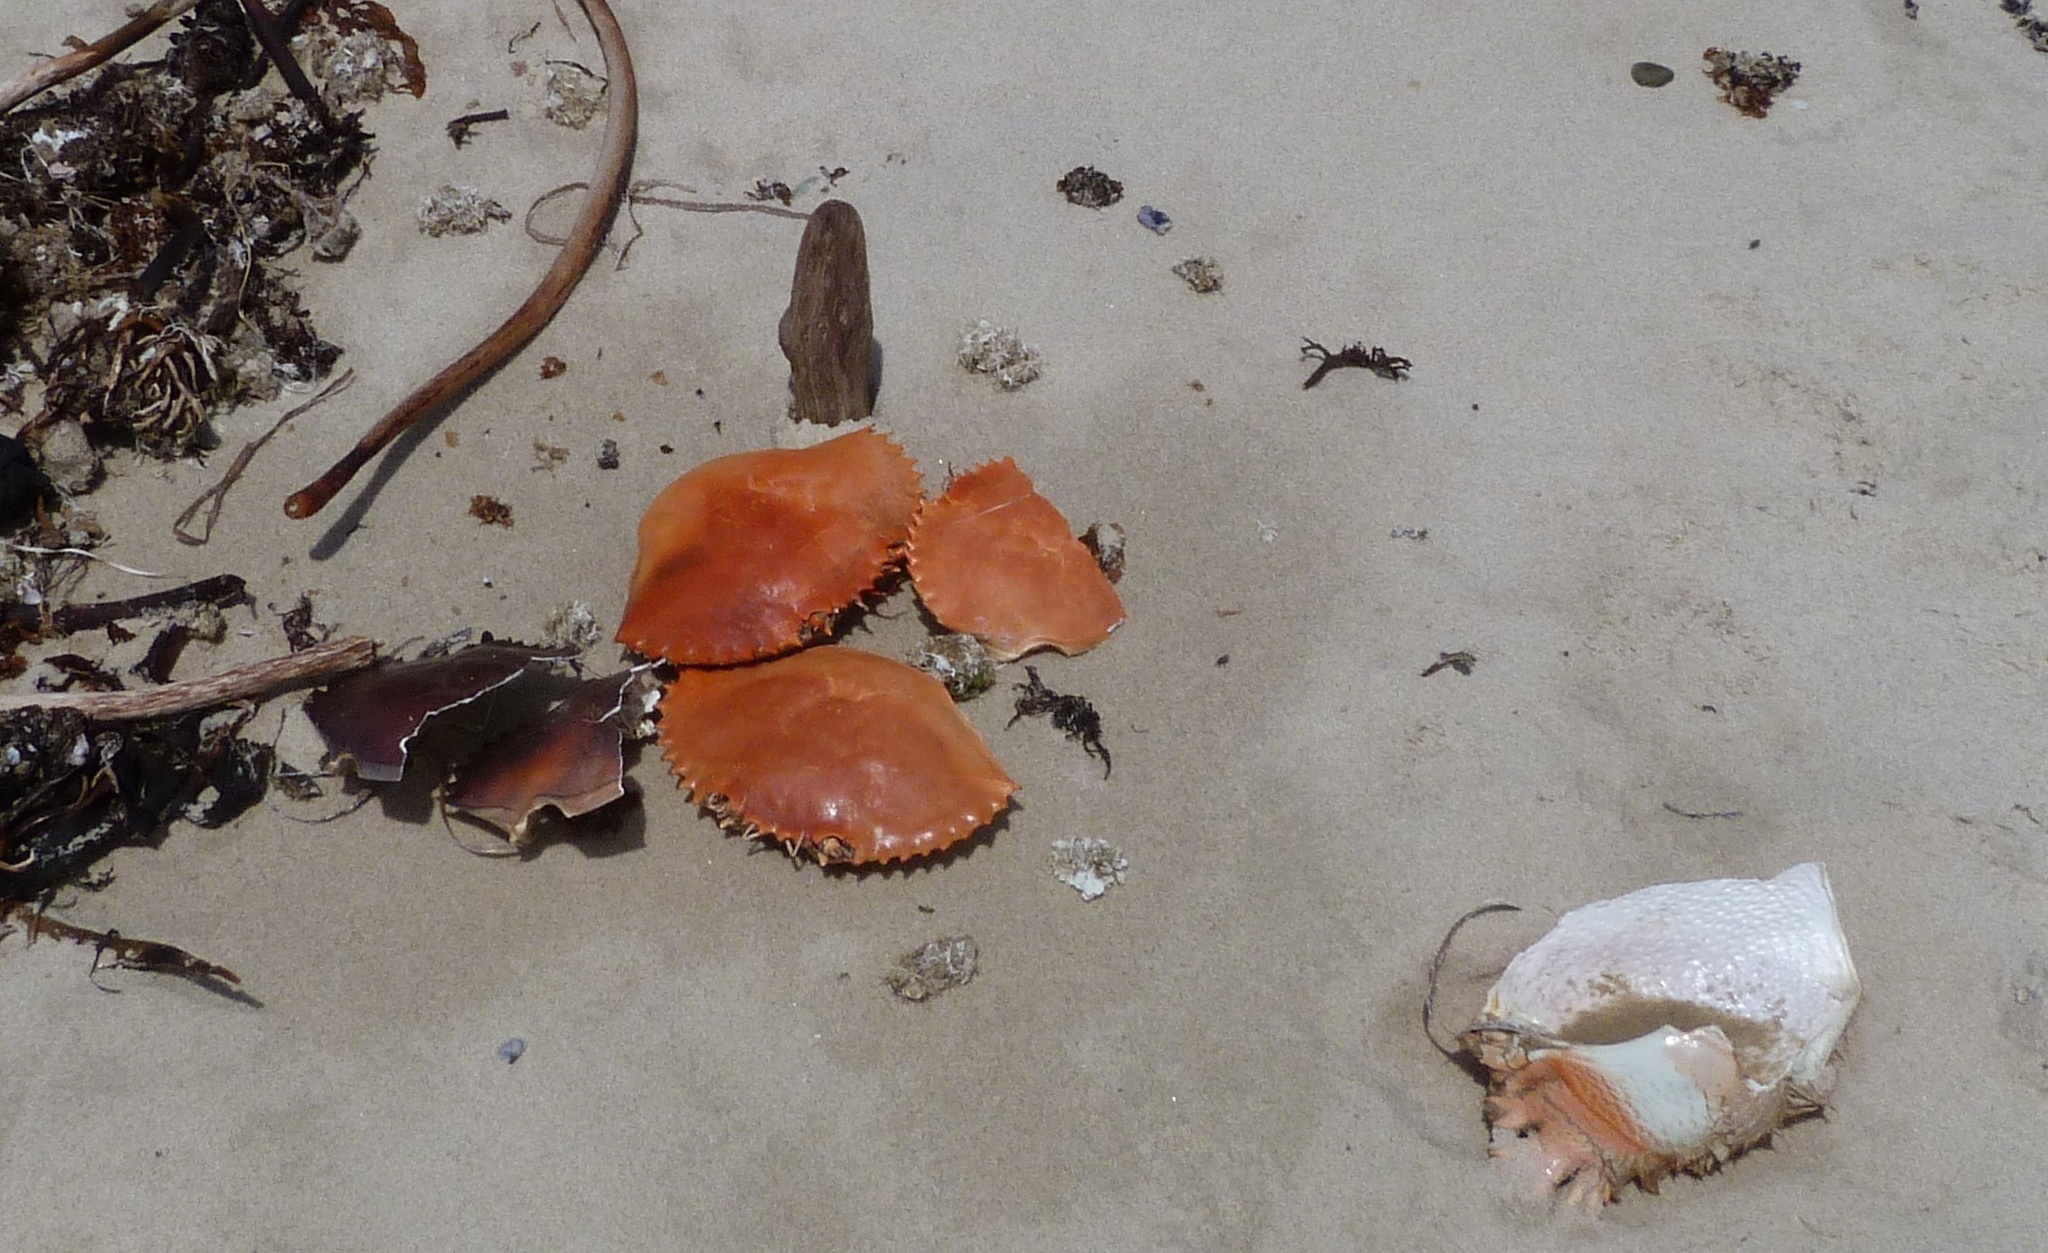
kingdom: Animalia
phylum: Arthropoda
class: Malacostraca
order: Decapoda
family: Portunidae
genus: Scylla
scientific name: Scylla serrata
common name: Giant mud crab
